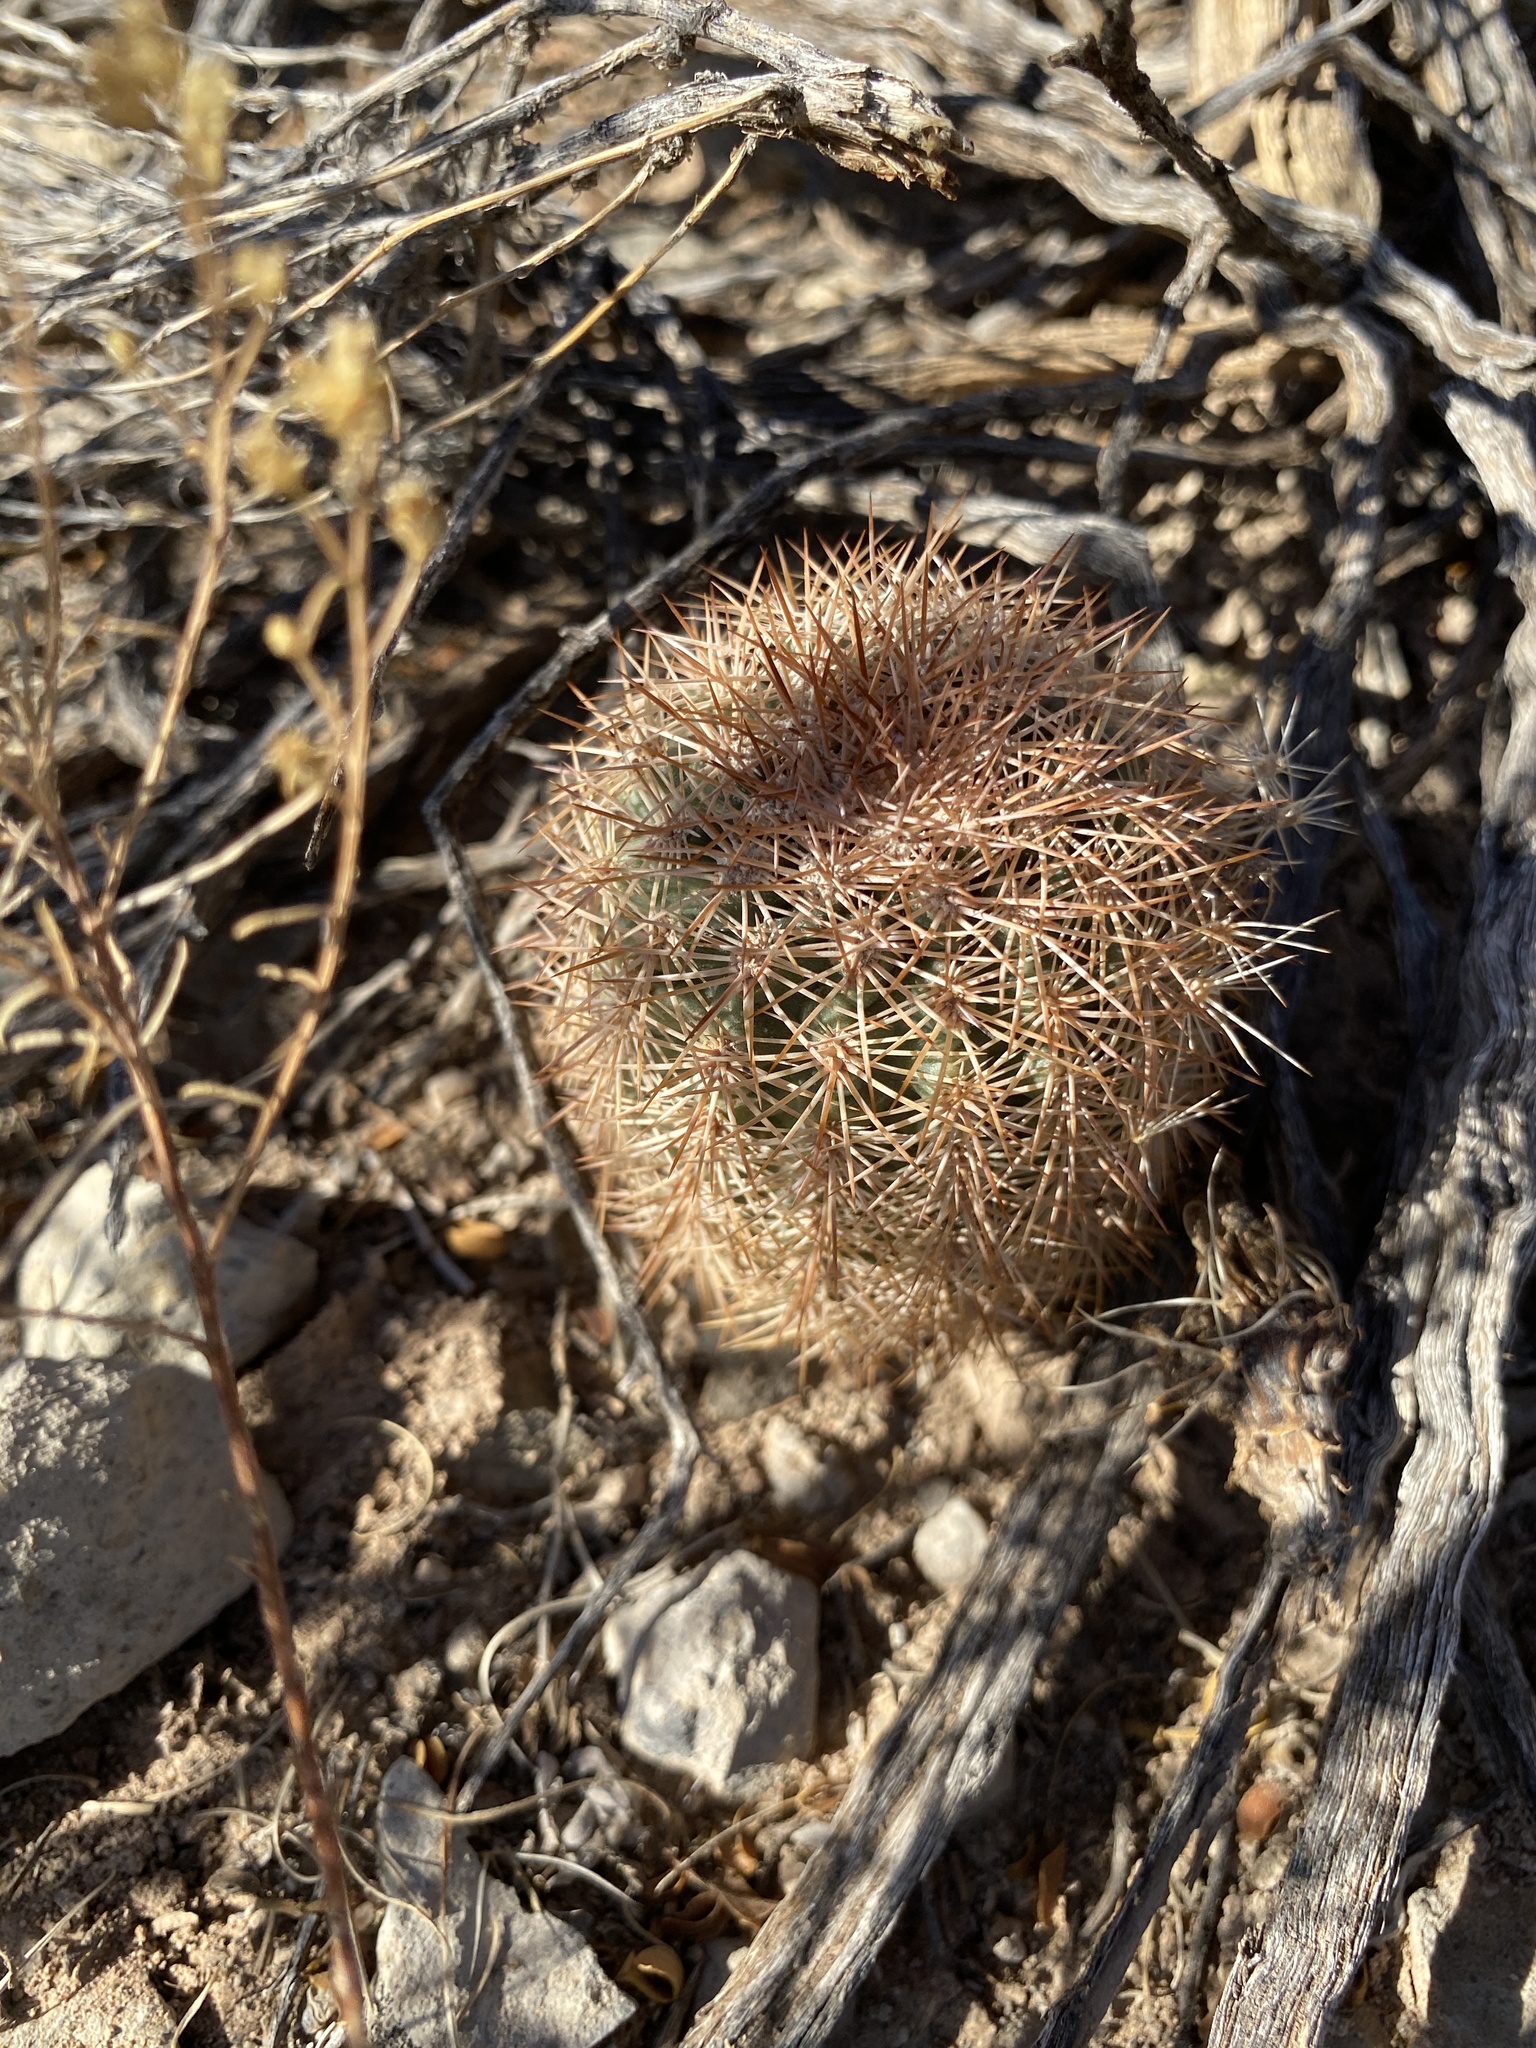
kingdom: Plantae
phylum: Tracheophyta
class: Magnoliopsida
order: Caryophyllales
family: Cactaceae
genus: Echinocereus
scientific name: Echinocereus dasyacanthus
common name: Spiny hedgehog cactus
